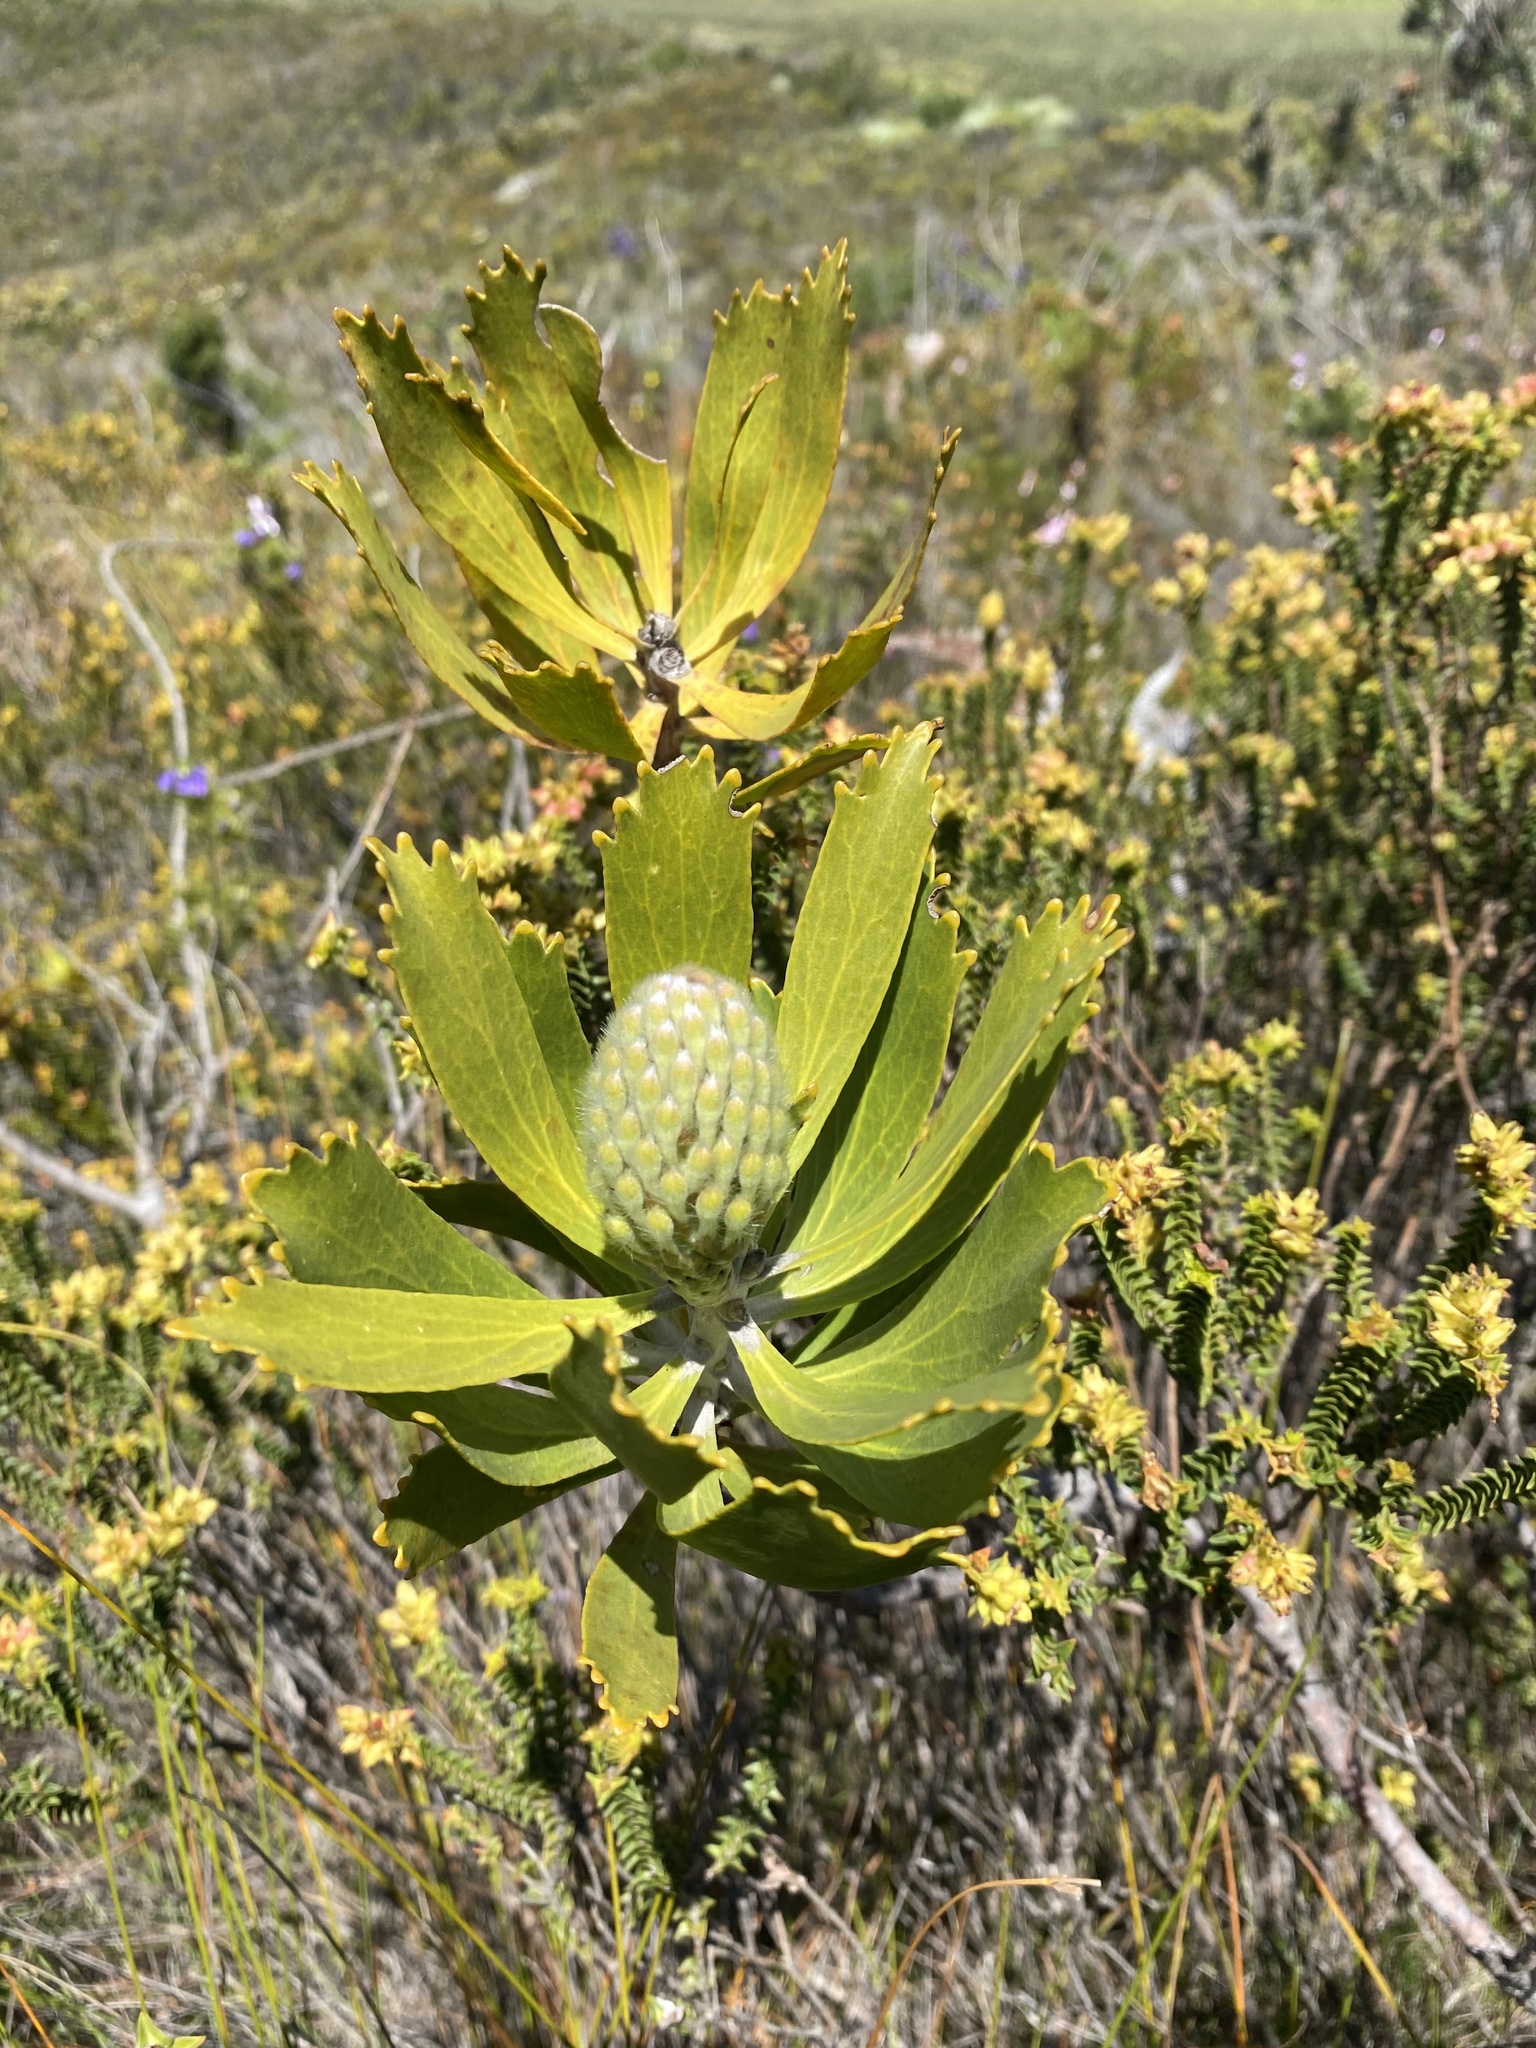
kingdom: Plantae
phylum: Tracheophyta
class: Magnoliopsida
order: Proteales
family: Proteaceae
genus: Leucospermum
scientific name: Leucospermum cuneiforme
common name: Common pincushion
